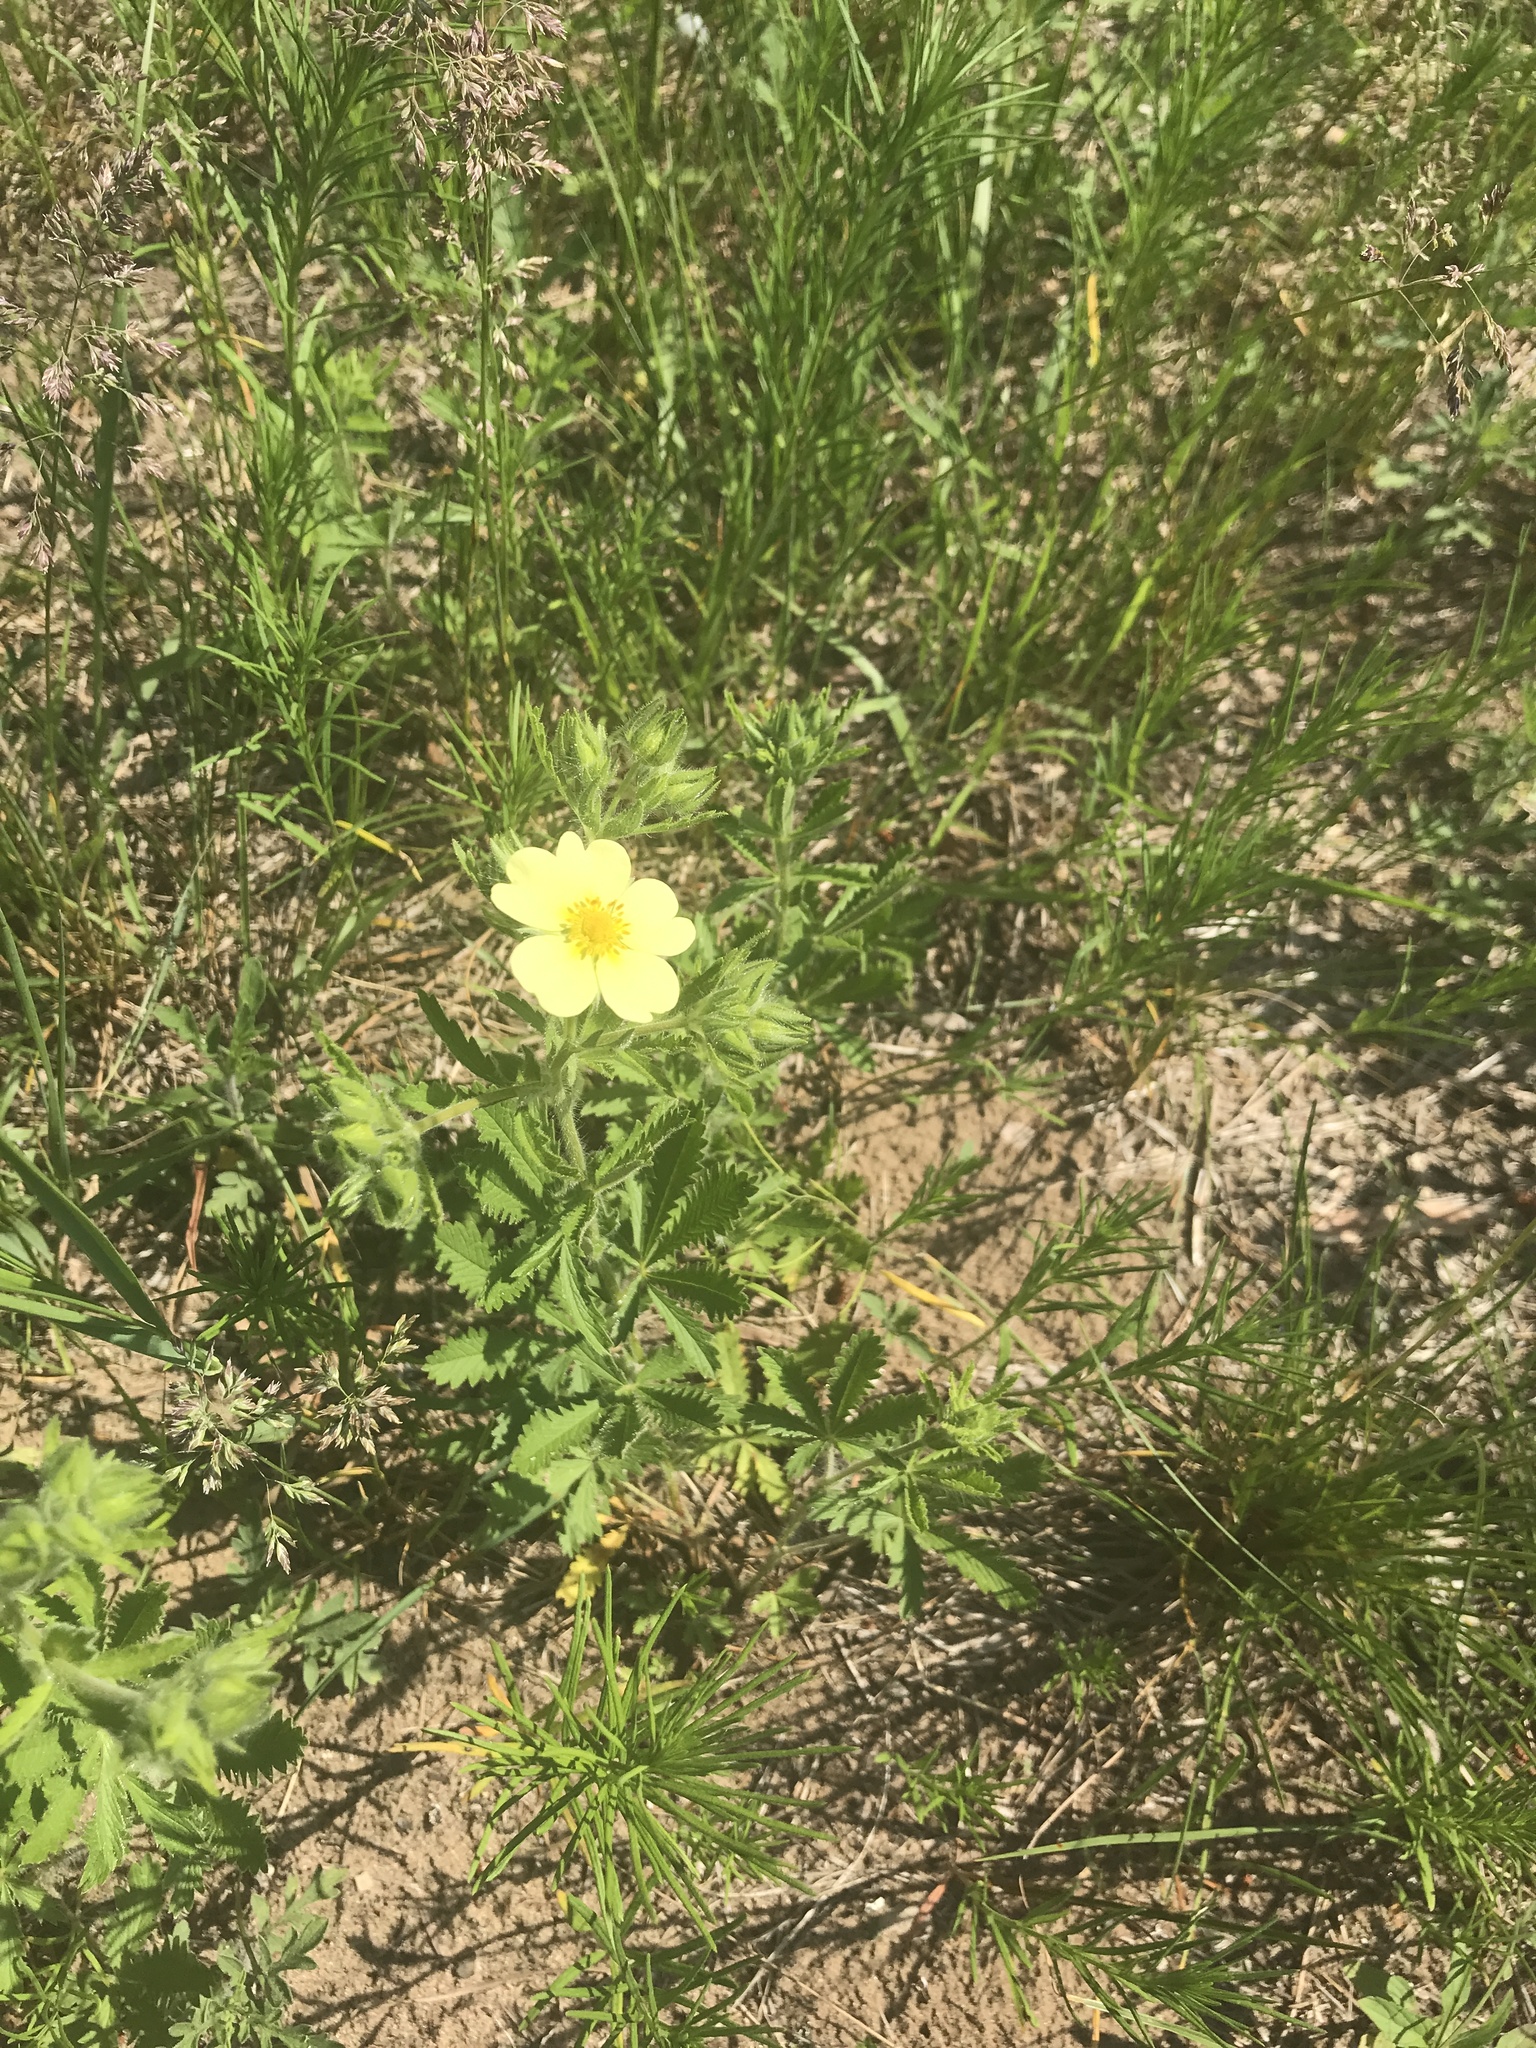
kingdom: Plantae
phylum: Tracheophyta
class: Magnoliopsida
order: Rosales
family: Rosaceae
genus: Potentilla
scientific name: Potentilla recta
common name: Sulphur cinquefoil
